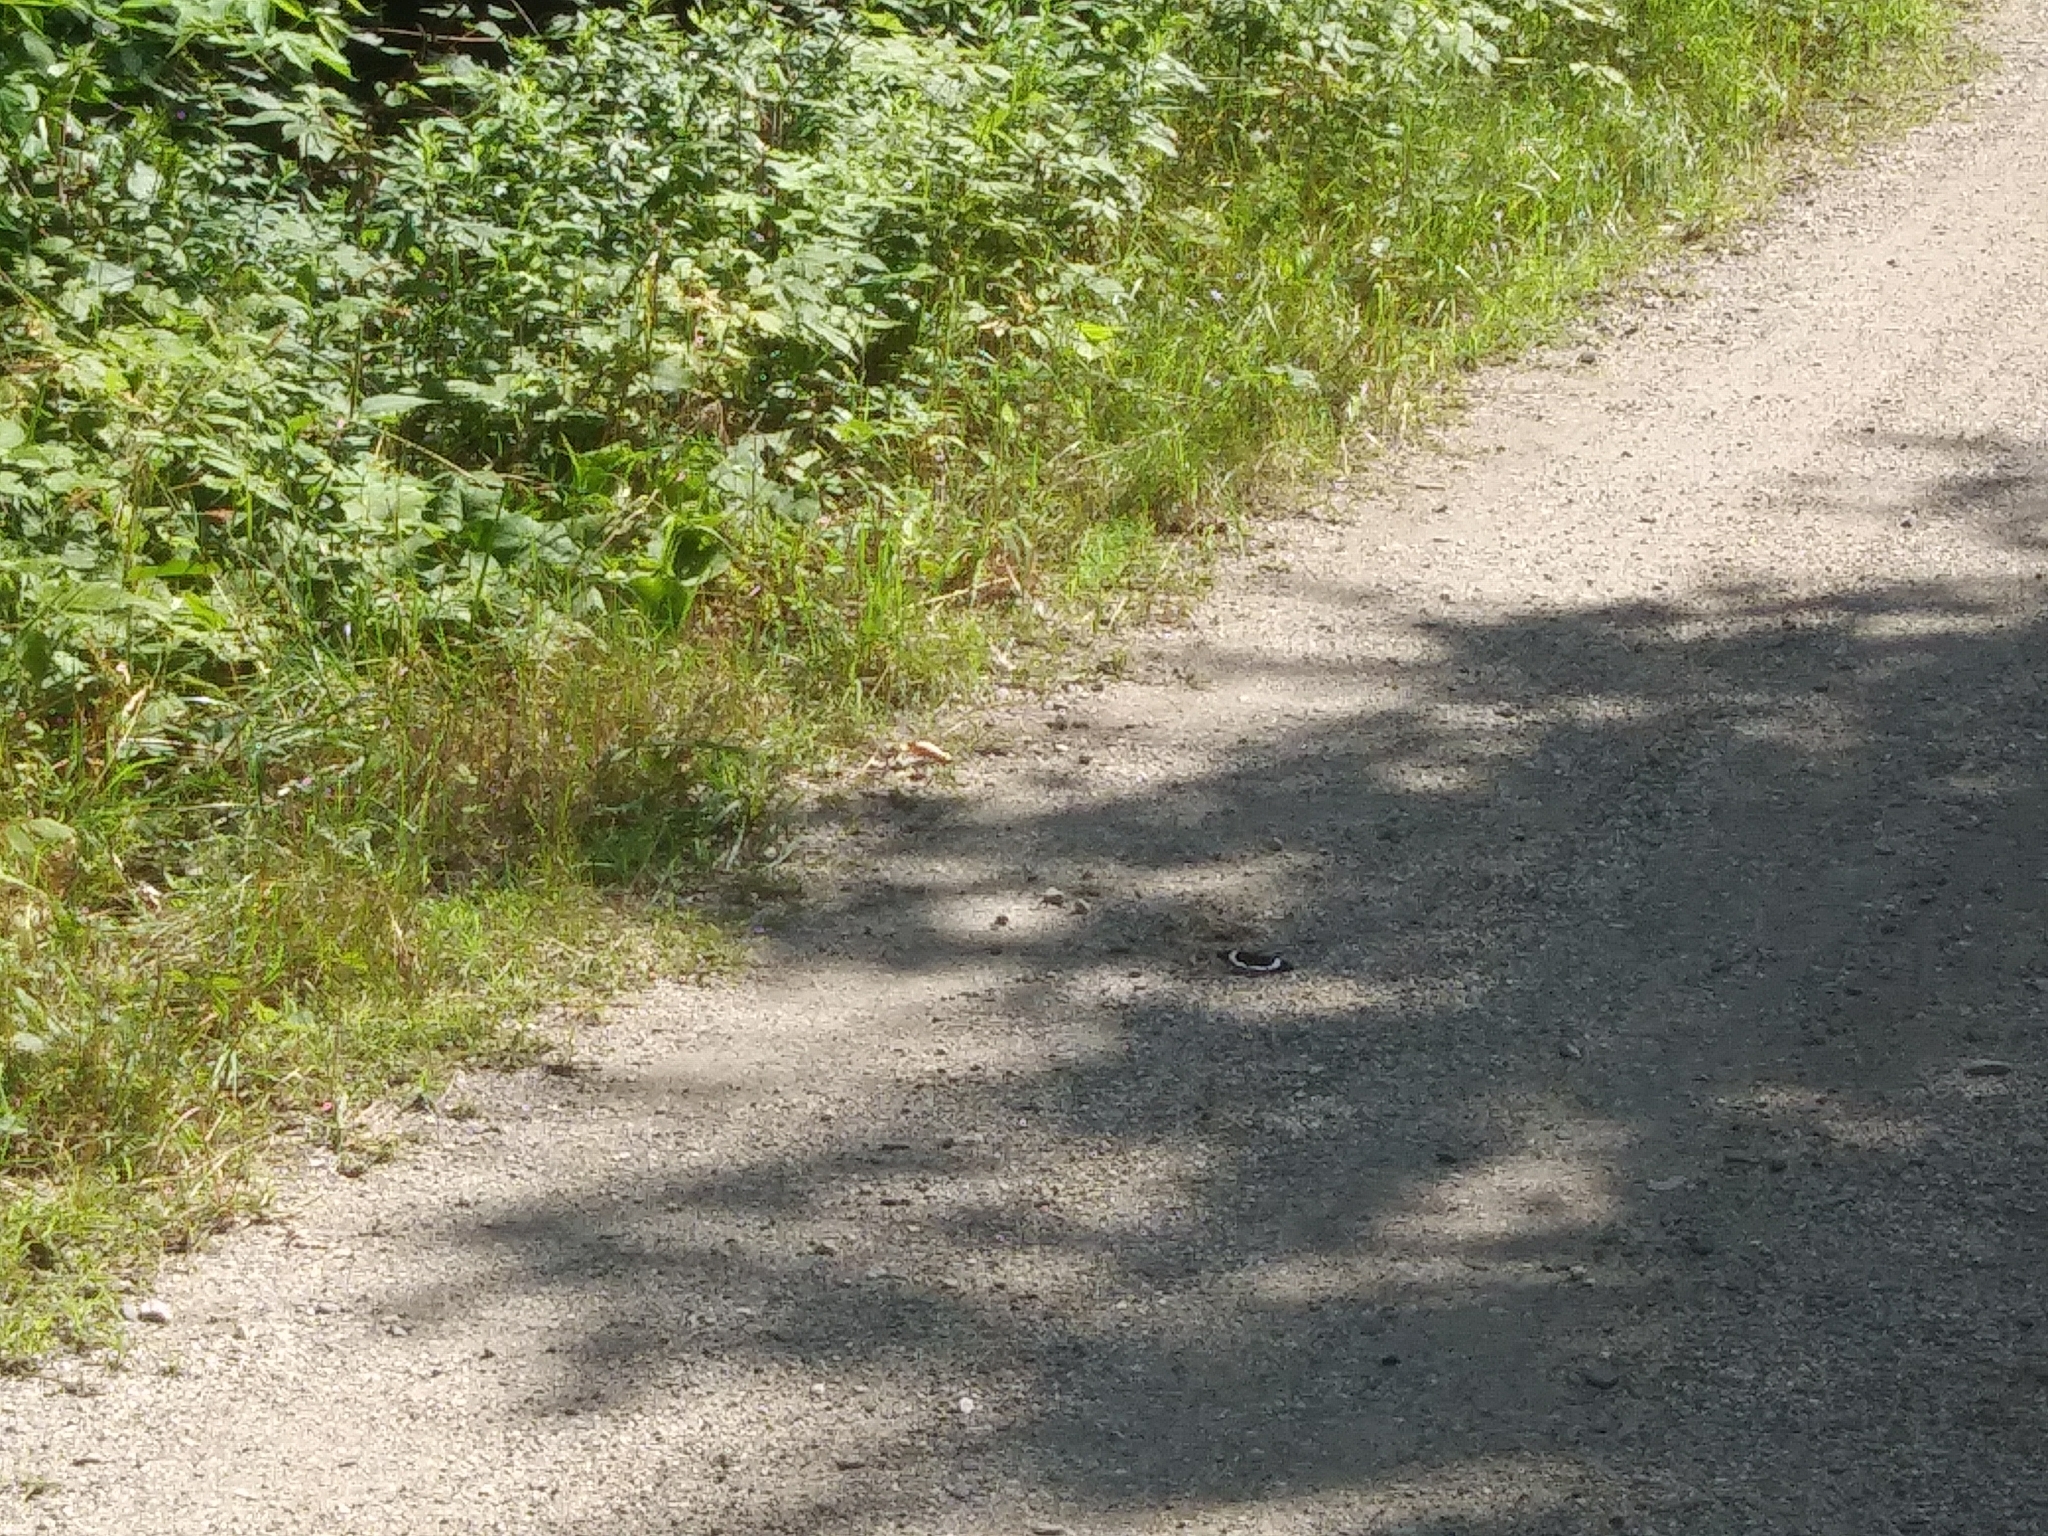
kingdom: Animalia
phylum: Arthropoda
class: Insecta
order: Lepidoptera
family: Nymphalidae
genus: Limenitis
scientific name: Limenitis arthemis
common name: Red-spotted admiral
